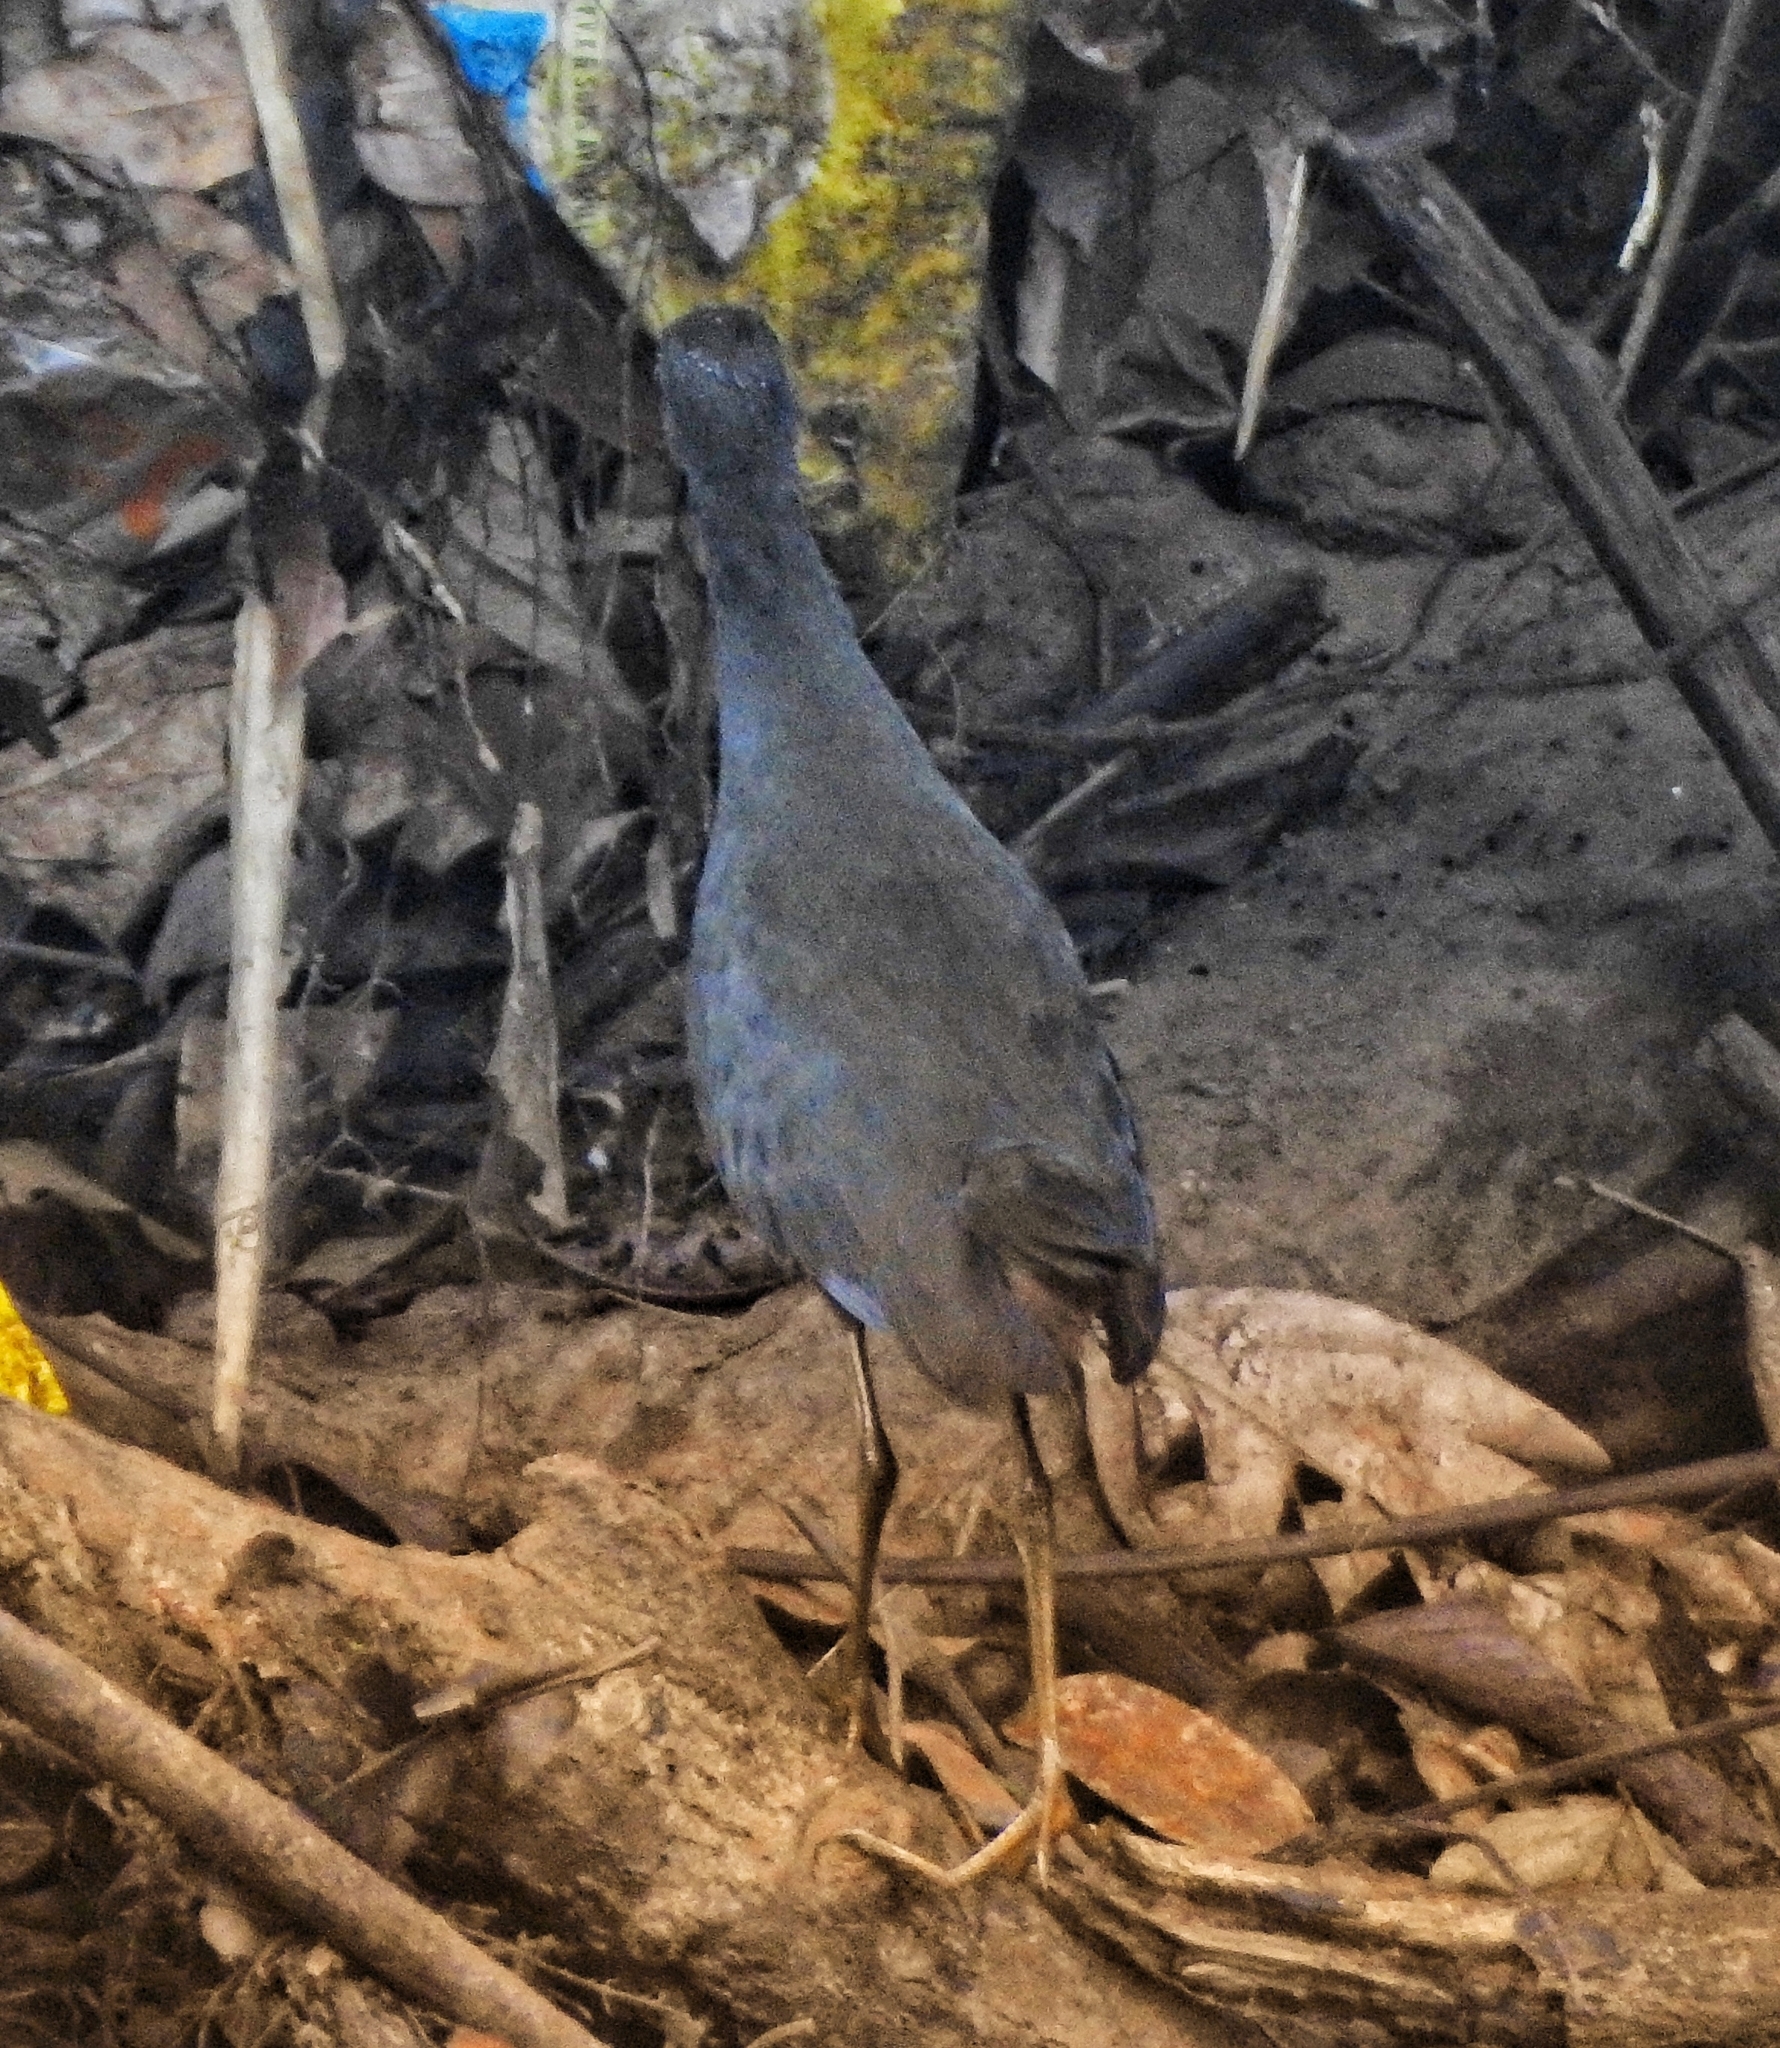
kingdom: Animalia
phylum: Chordata
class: Aves
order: Gruiformes
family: Rallidae
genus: Amaurornis
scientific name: Amaurornis phoenicurus
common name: White-breasted waterhen
